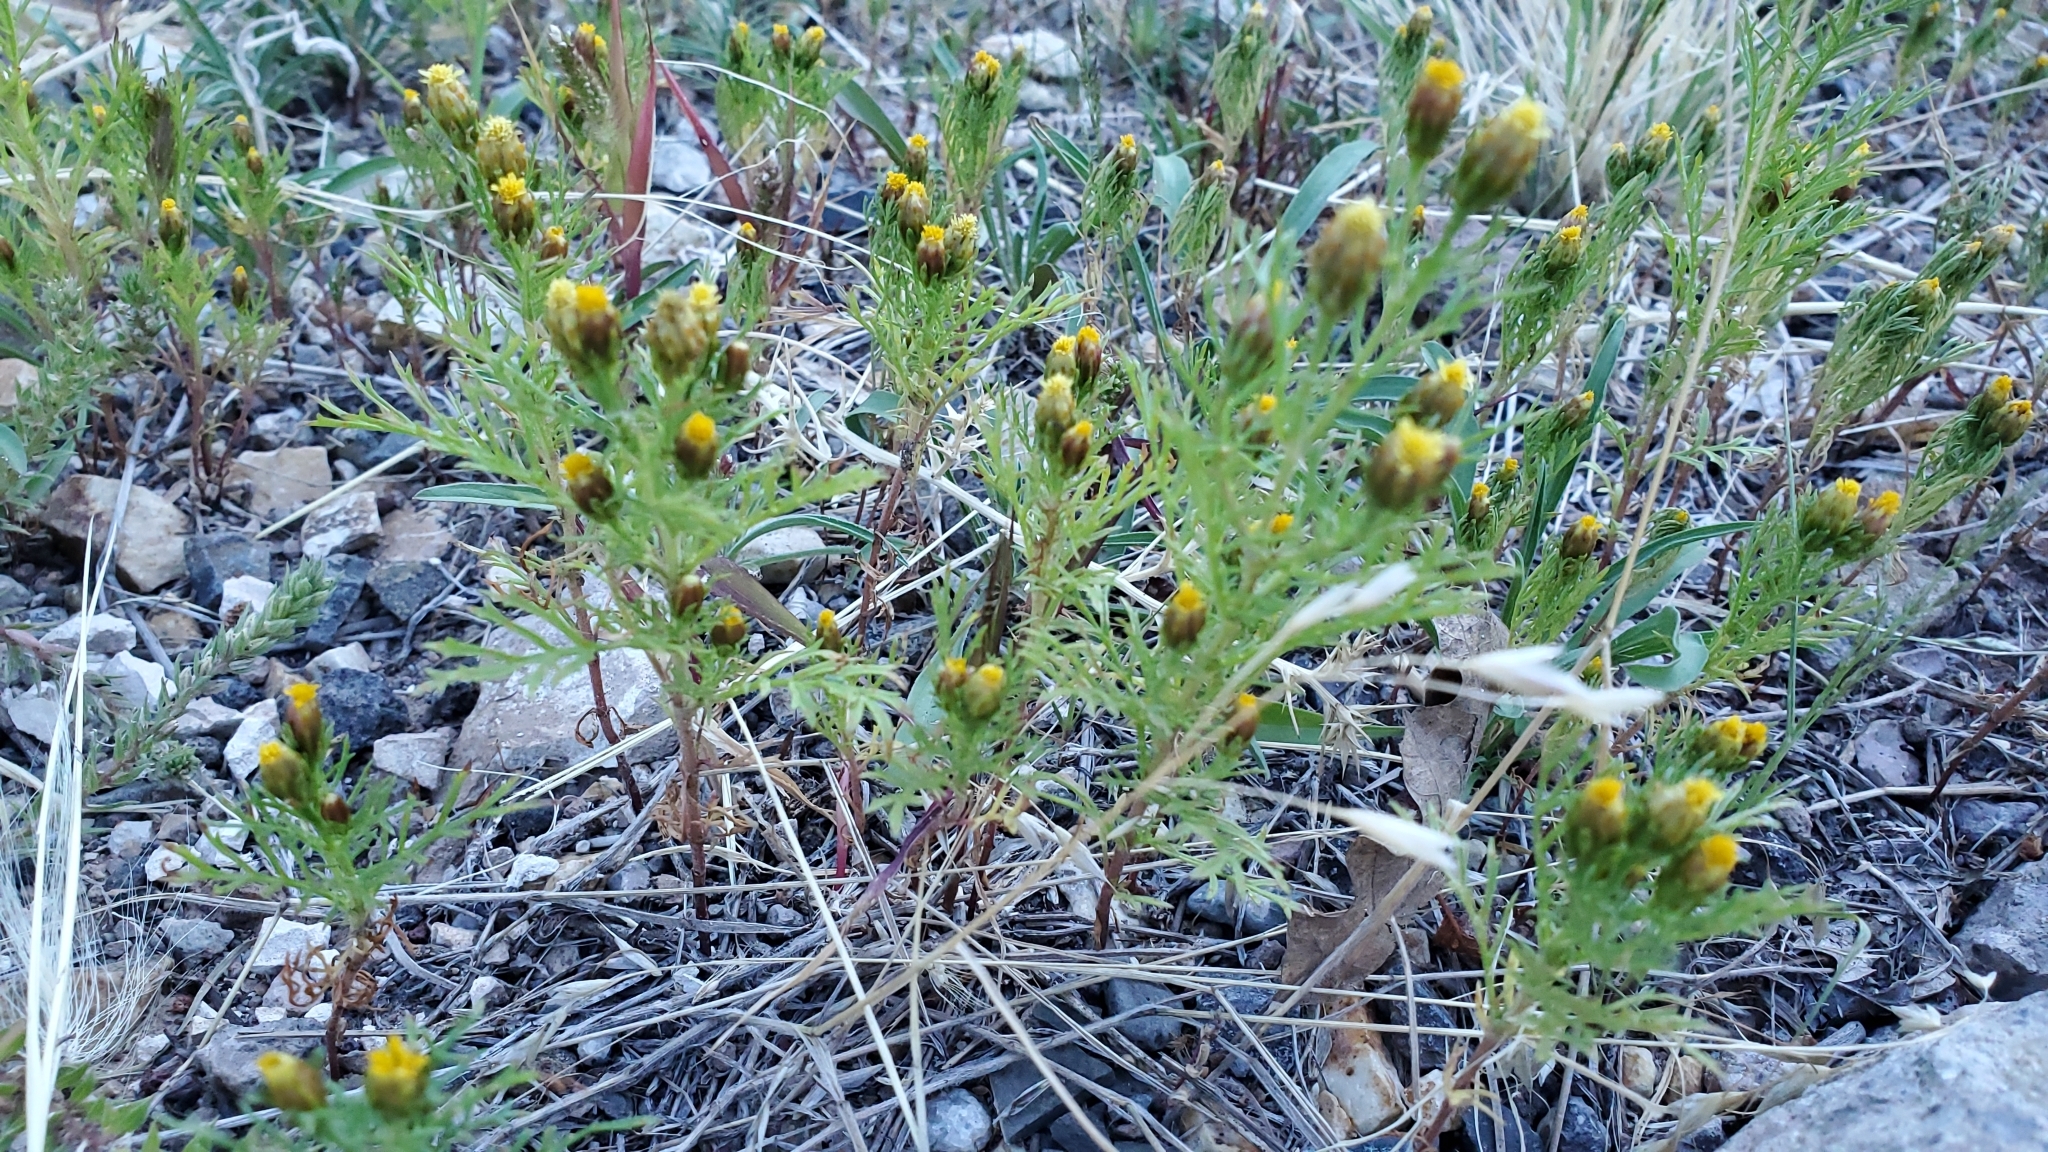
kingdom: Plantae
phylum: Tracheophyta
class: Magnoliopsida
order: Asterales
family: Asteraceae
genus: Dyssodia
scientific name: Dyssodia papposa
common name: Dogweed
